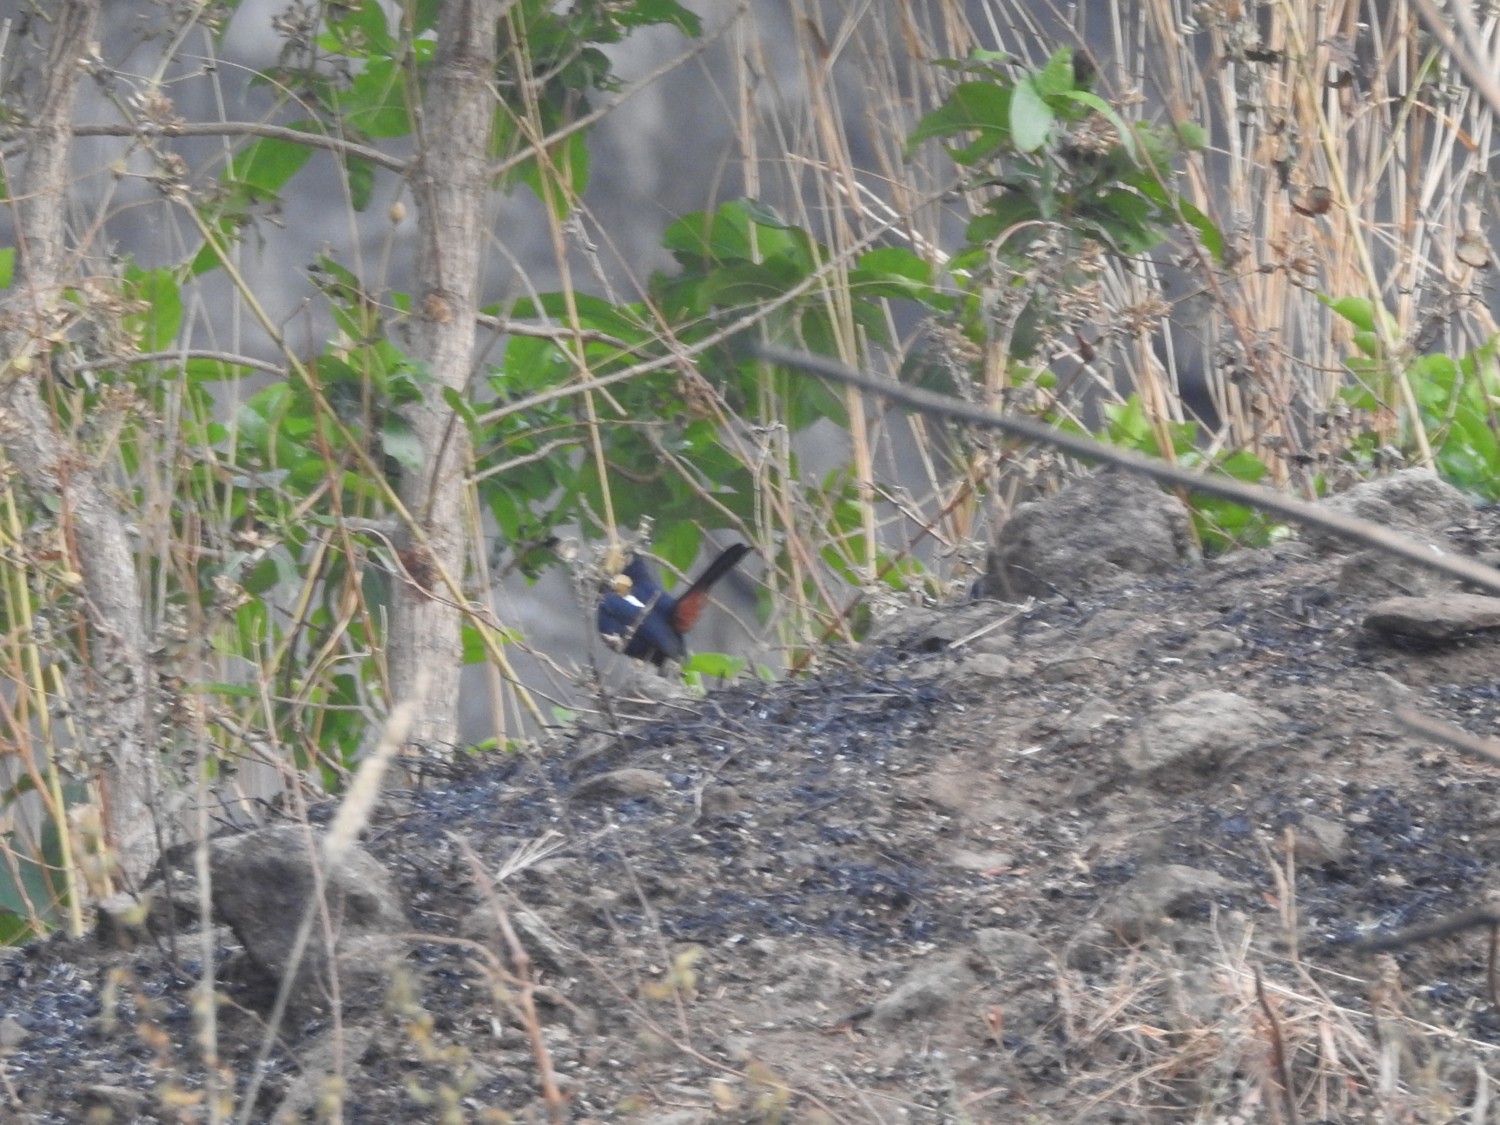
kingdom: Animalia
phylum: Chordata
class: Aves
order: Passeriformes
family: Muscicapidae
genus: Saxicoloides
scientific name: Saxicoloides fulicatus
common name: Indian robin
